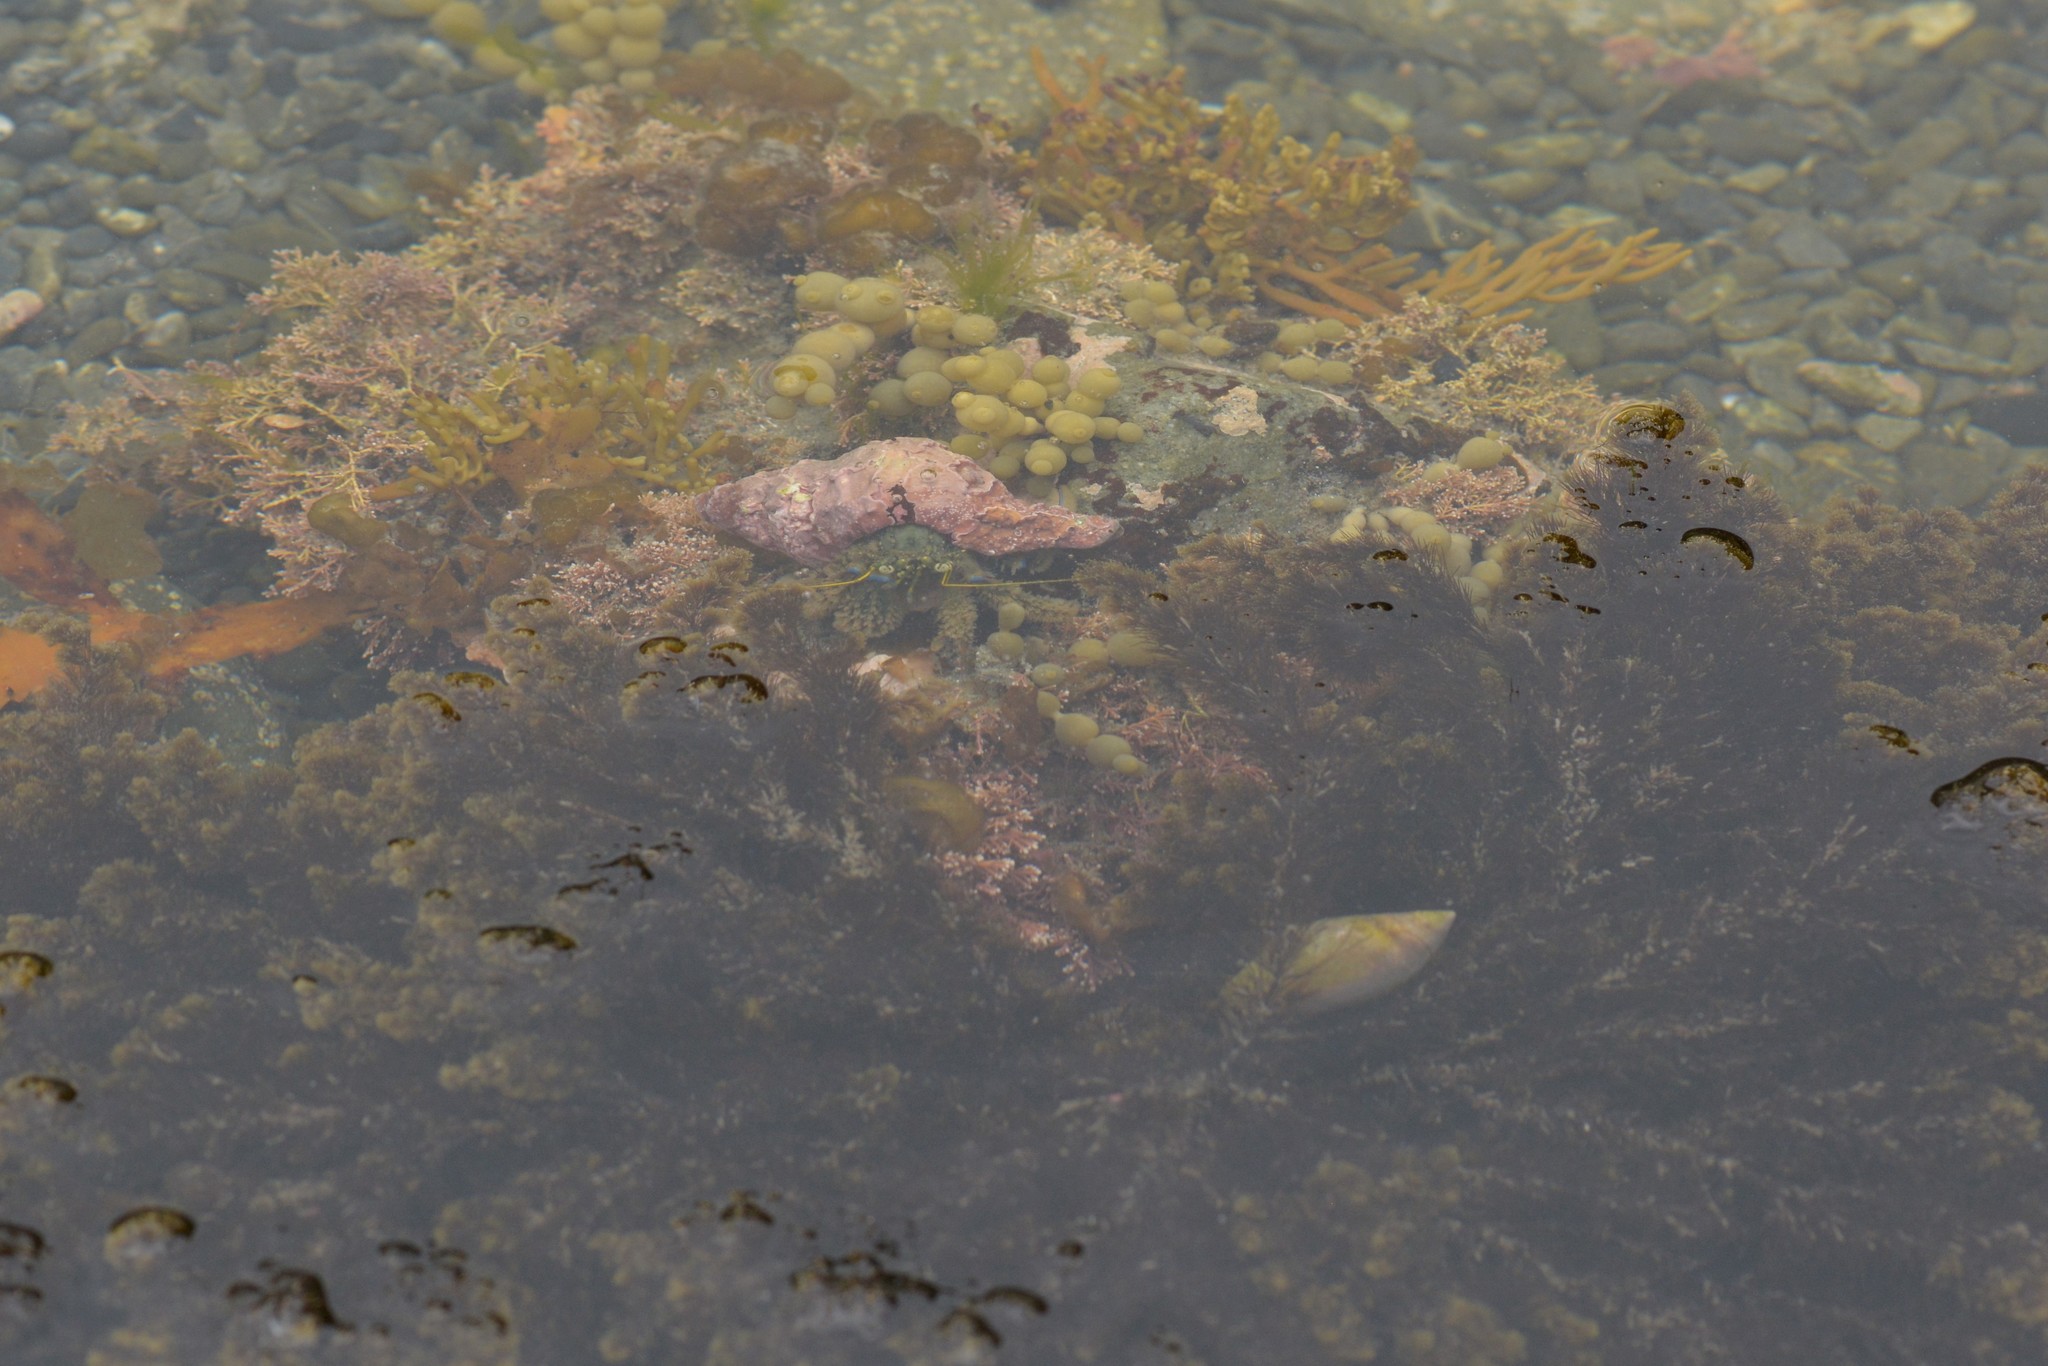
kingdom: Animalia
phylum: Arthropoda
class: Malacostraca
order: Decapoda
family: Paguridae
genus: Pagurus
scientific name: Pagurus novizealandiae
